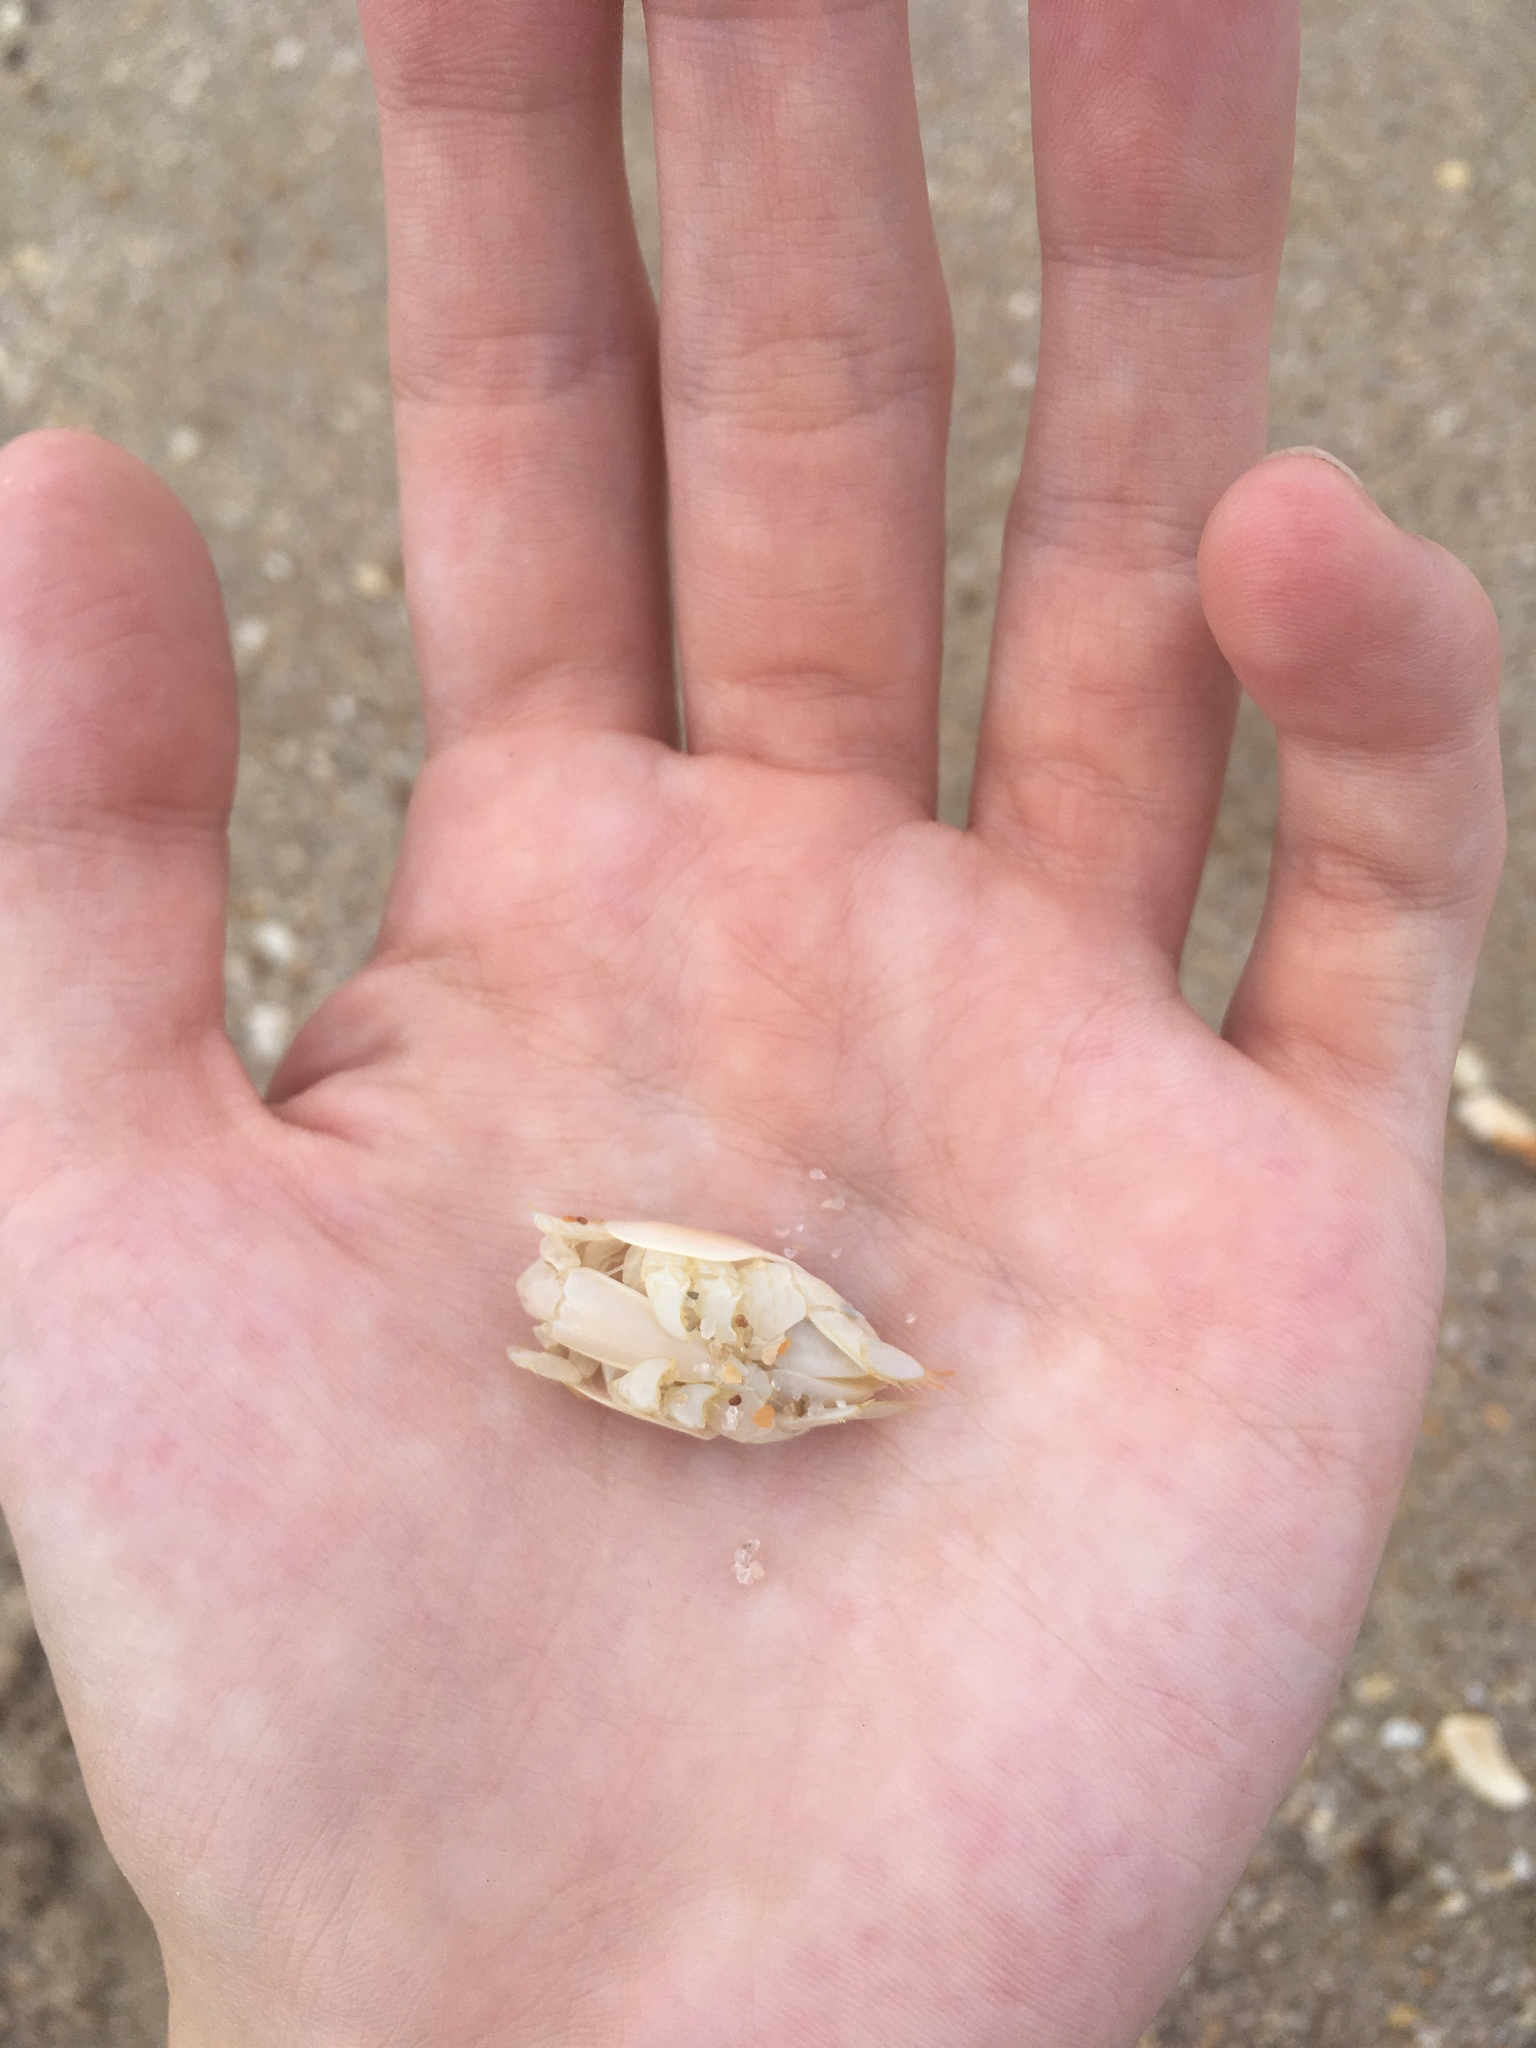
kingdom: Animalia
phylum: Arthropoda
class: Malacostraca
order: Decapoda
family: Hippidae
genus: Emerita
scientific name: Emerita talpoida
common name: Atlantic sand crab
